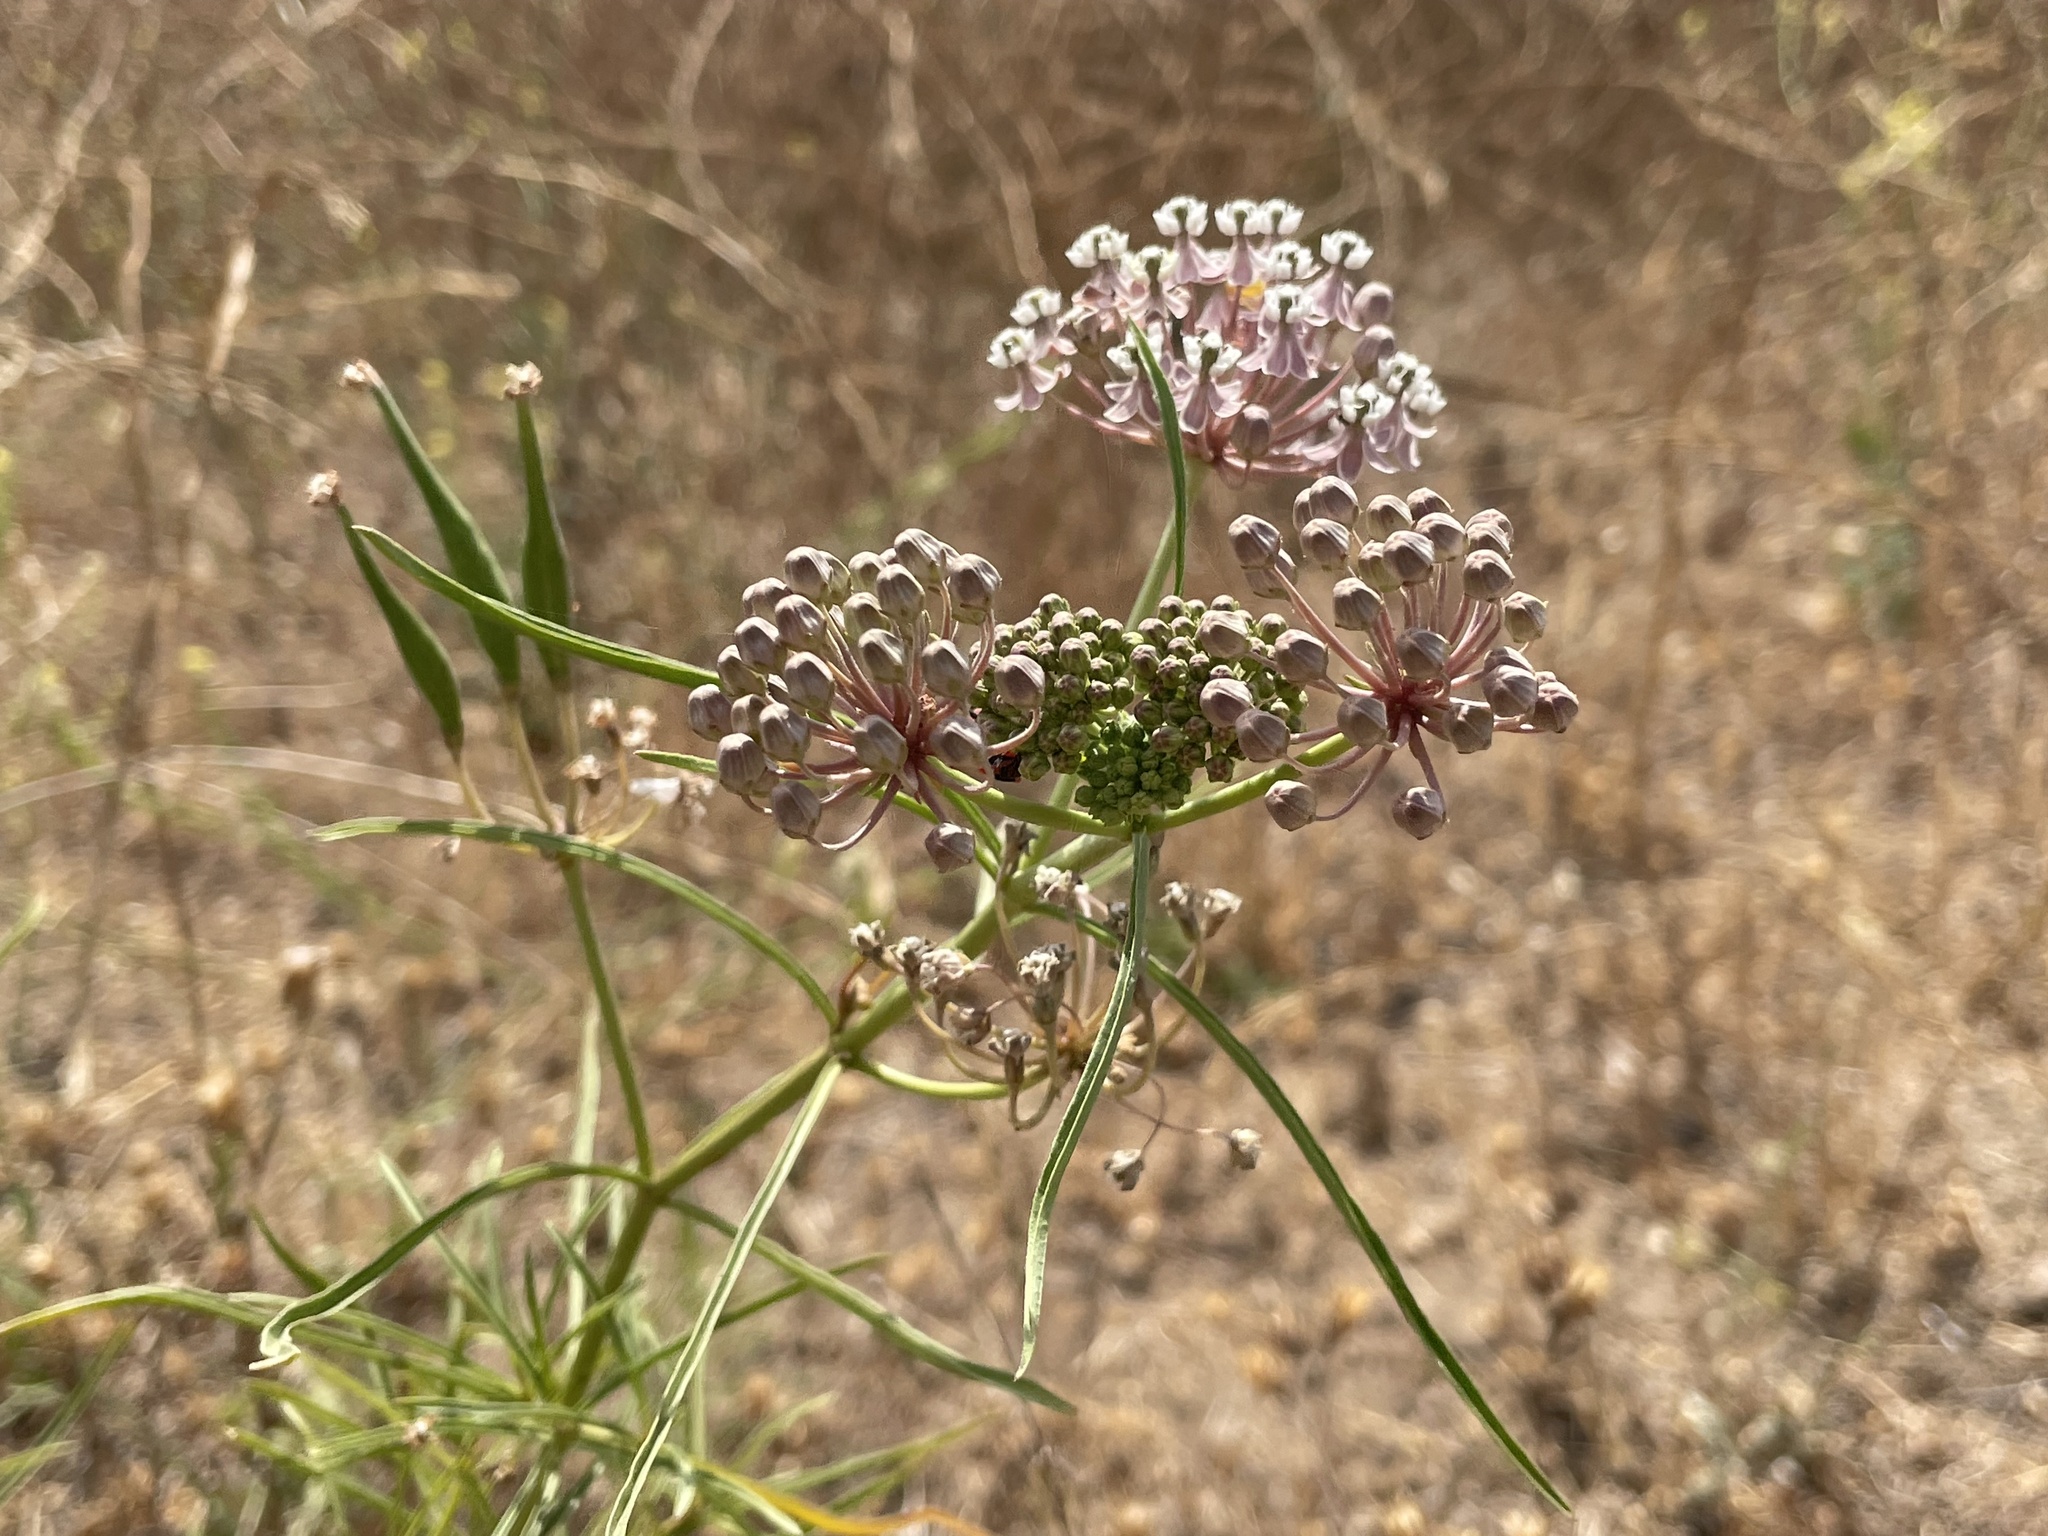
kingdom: Plantae
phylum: Tracheophyta
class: Magnoliopsida
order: Gentianales
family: Apocynaceae
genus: Asclepias
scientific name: Asclepias fascicularis
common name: Mexican milkweed
